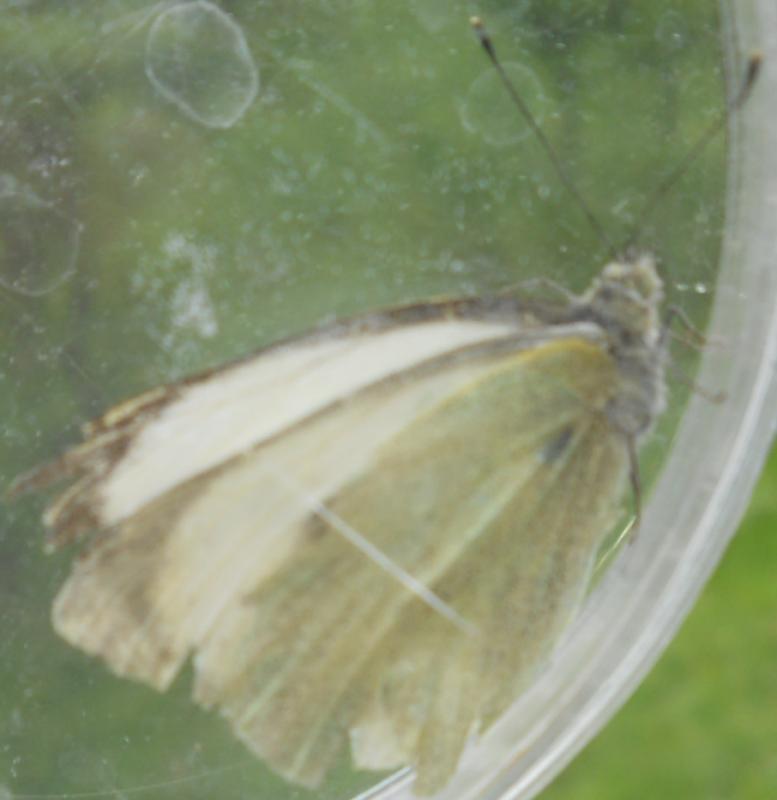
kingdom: Animalia
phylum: Arthropoda
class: Insecta
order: Lepidoptera
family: Pieridae
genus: Pieris
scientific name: Pieris brassicae
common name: Large white
